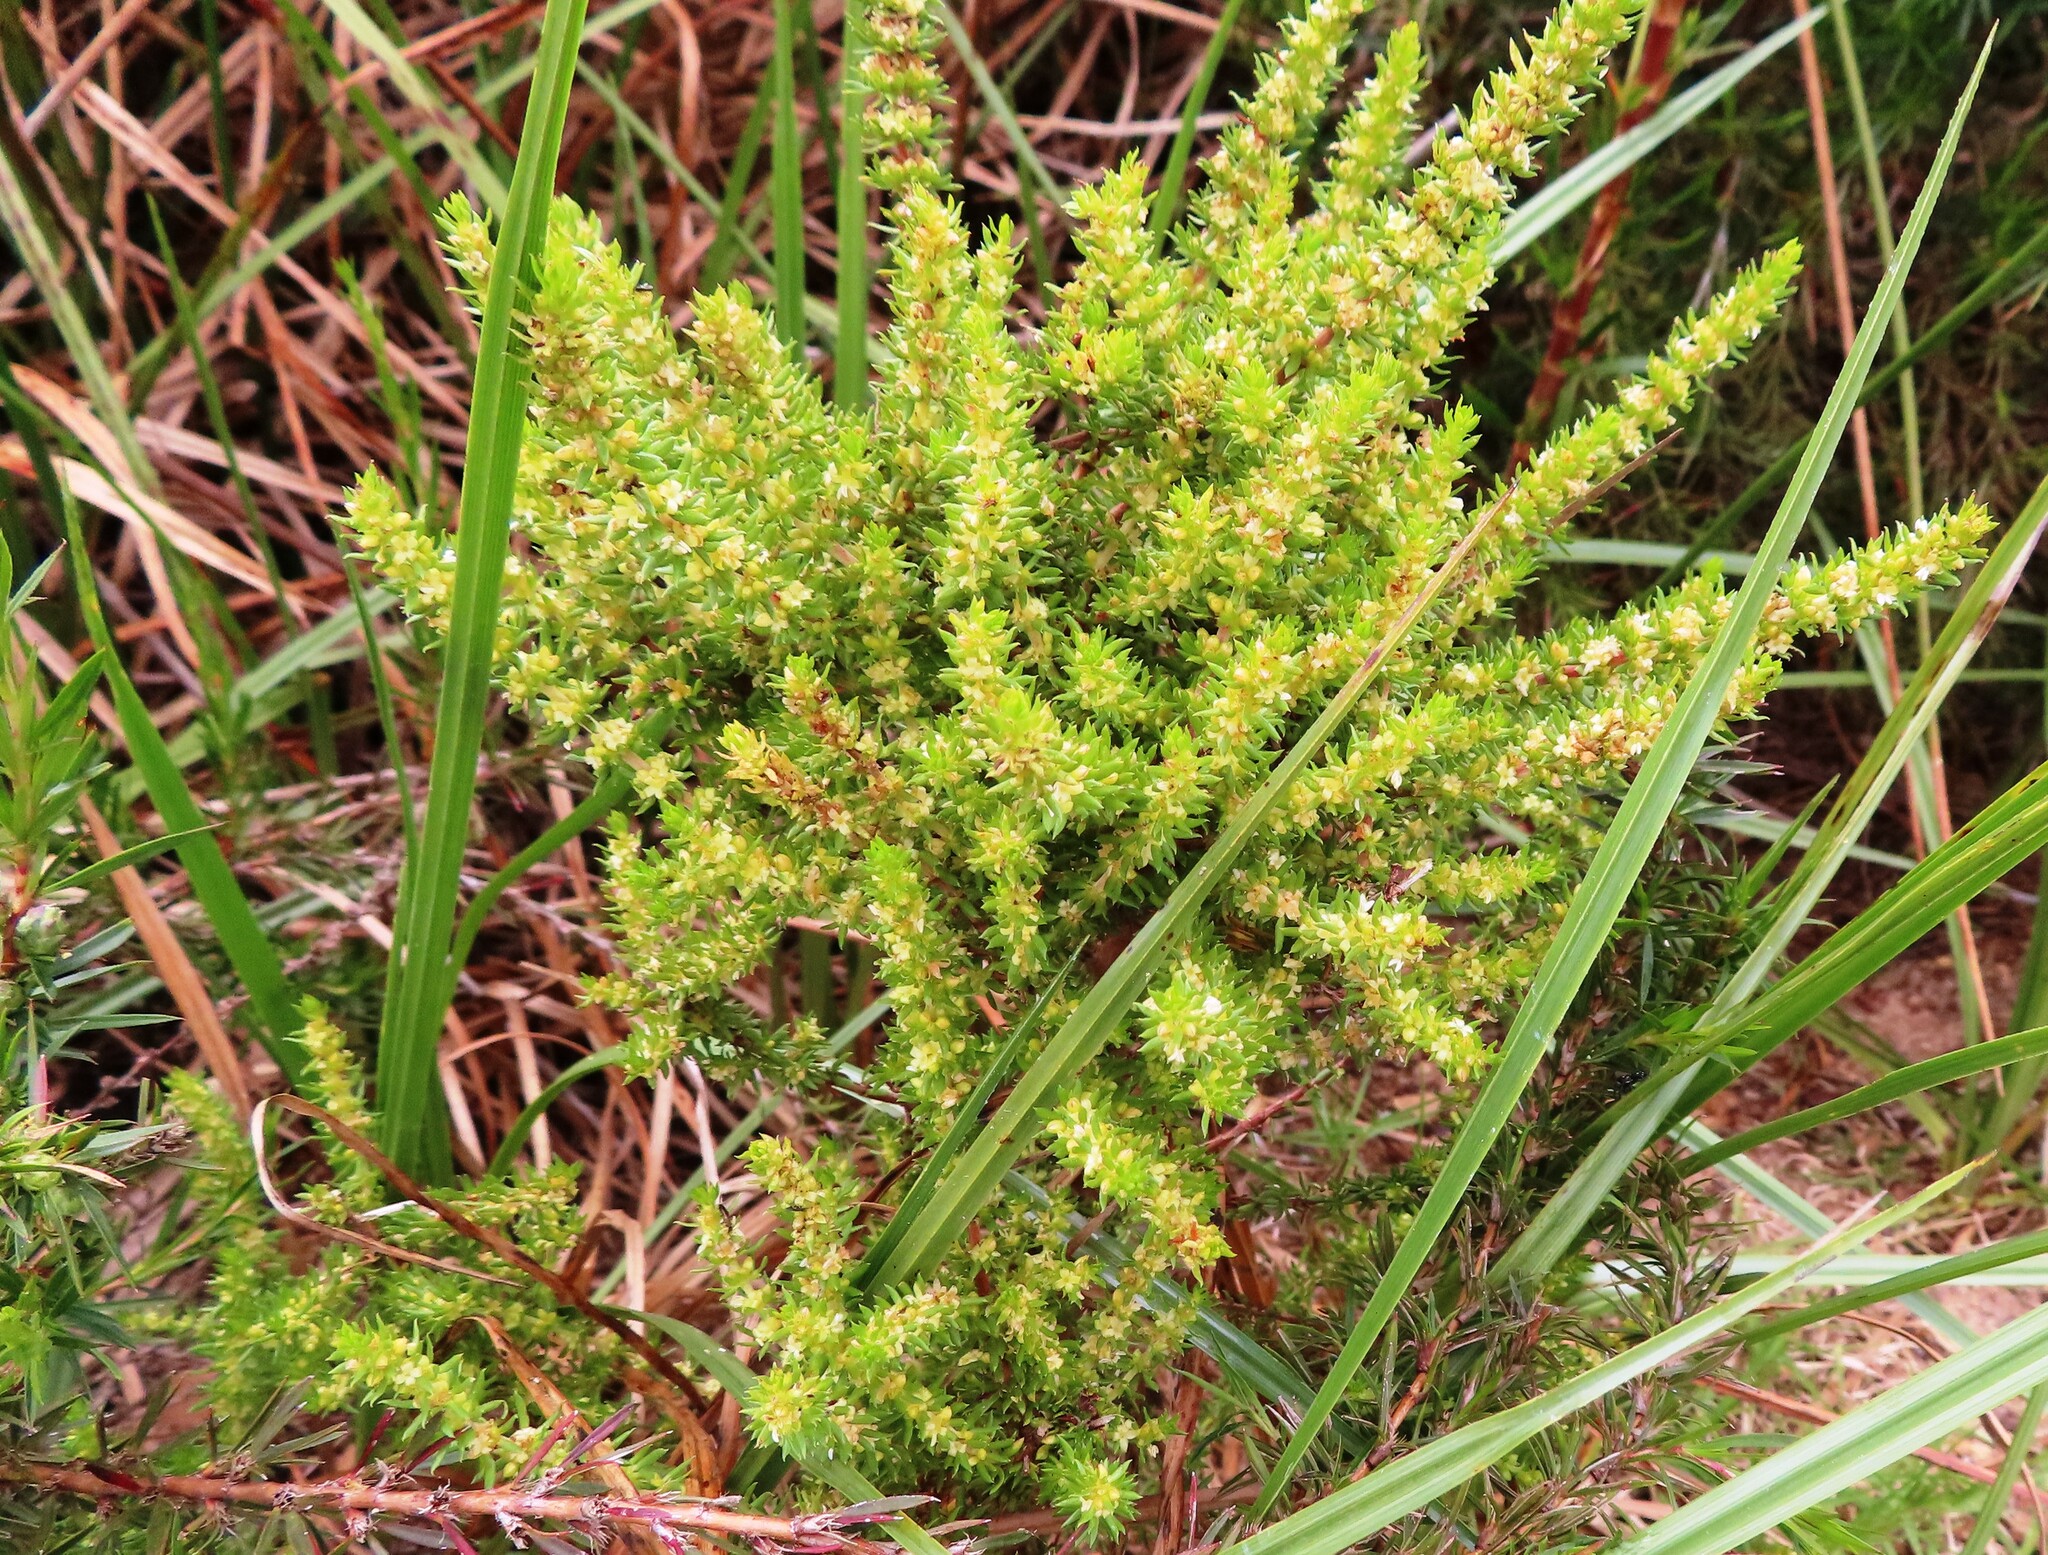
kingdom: Plantae
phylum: Tracheophyta
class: Magnoliopsida
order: Gentianales
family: Rubiaceae
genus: Anthospermum
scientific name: Anthospermum aethiopicum
